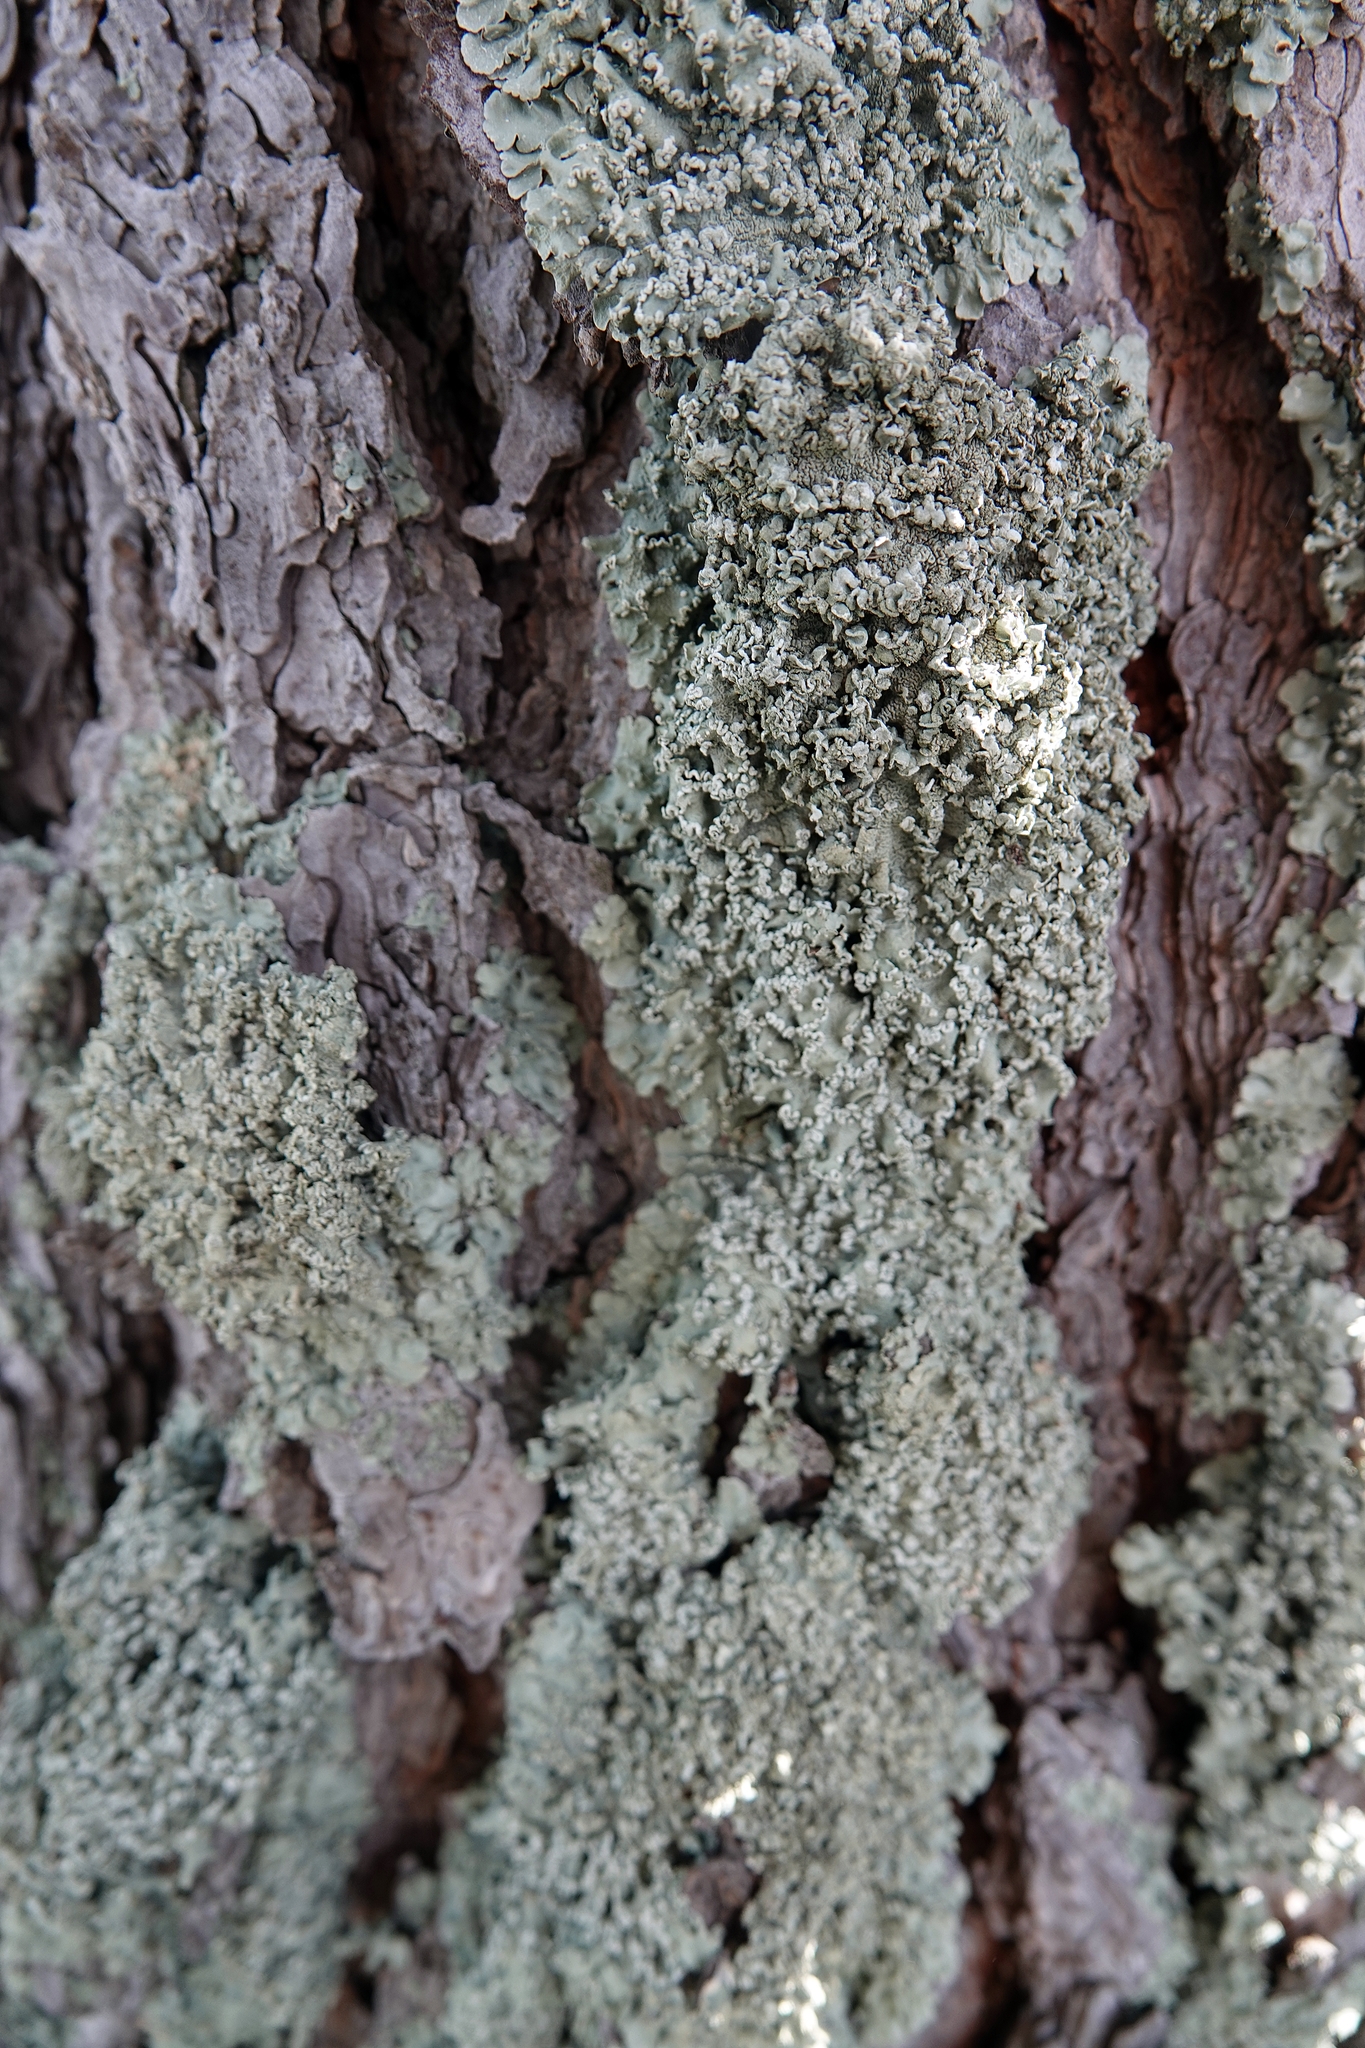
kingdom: Fungi
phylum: Ascomycota
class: Lecanoromycetes
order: Lecanorales
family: Parmeliaceae
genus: Flavopunctelia
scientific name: Flavopunctelia soredica
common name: Powder-edged speckled greenshield
